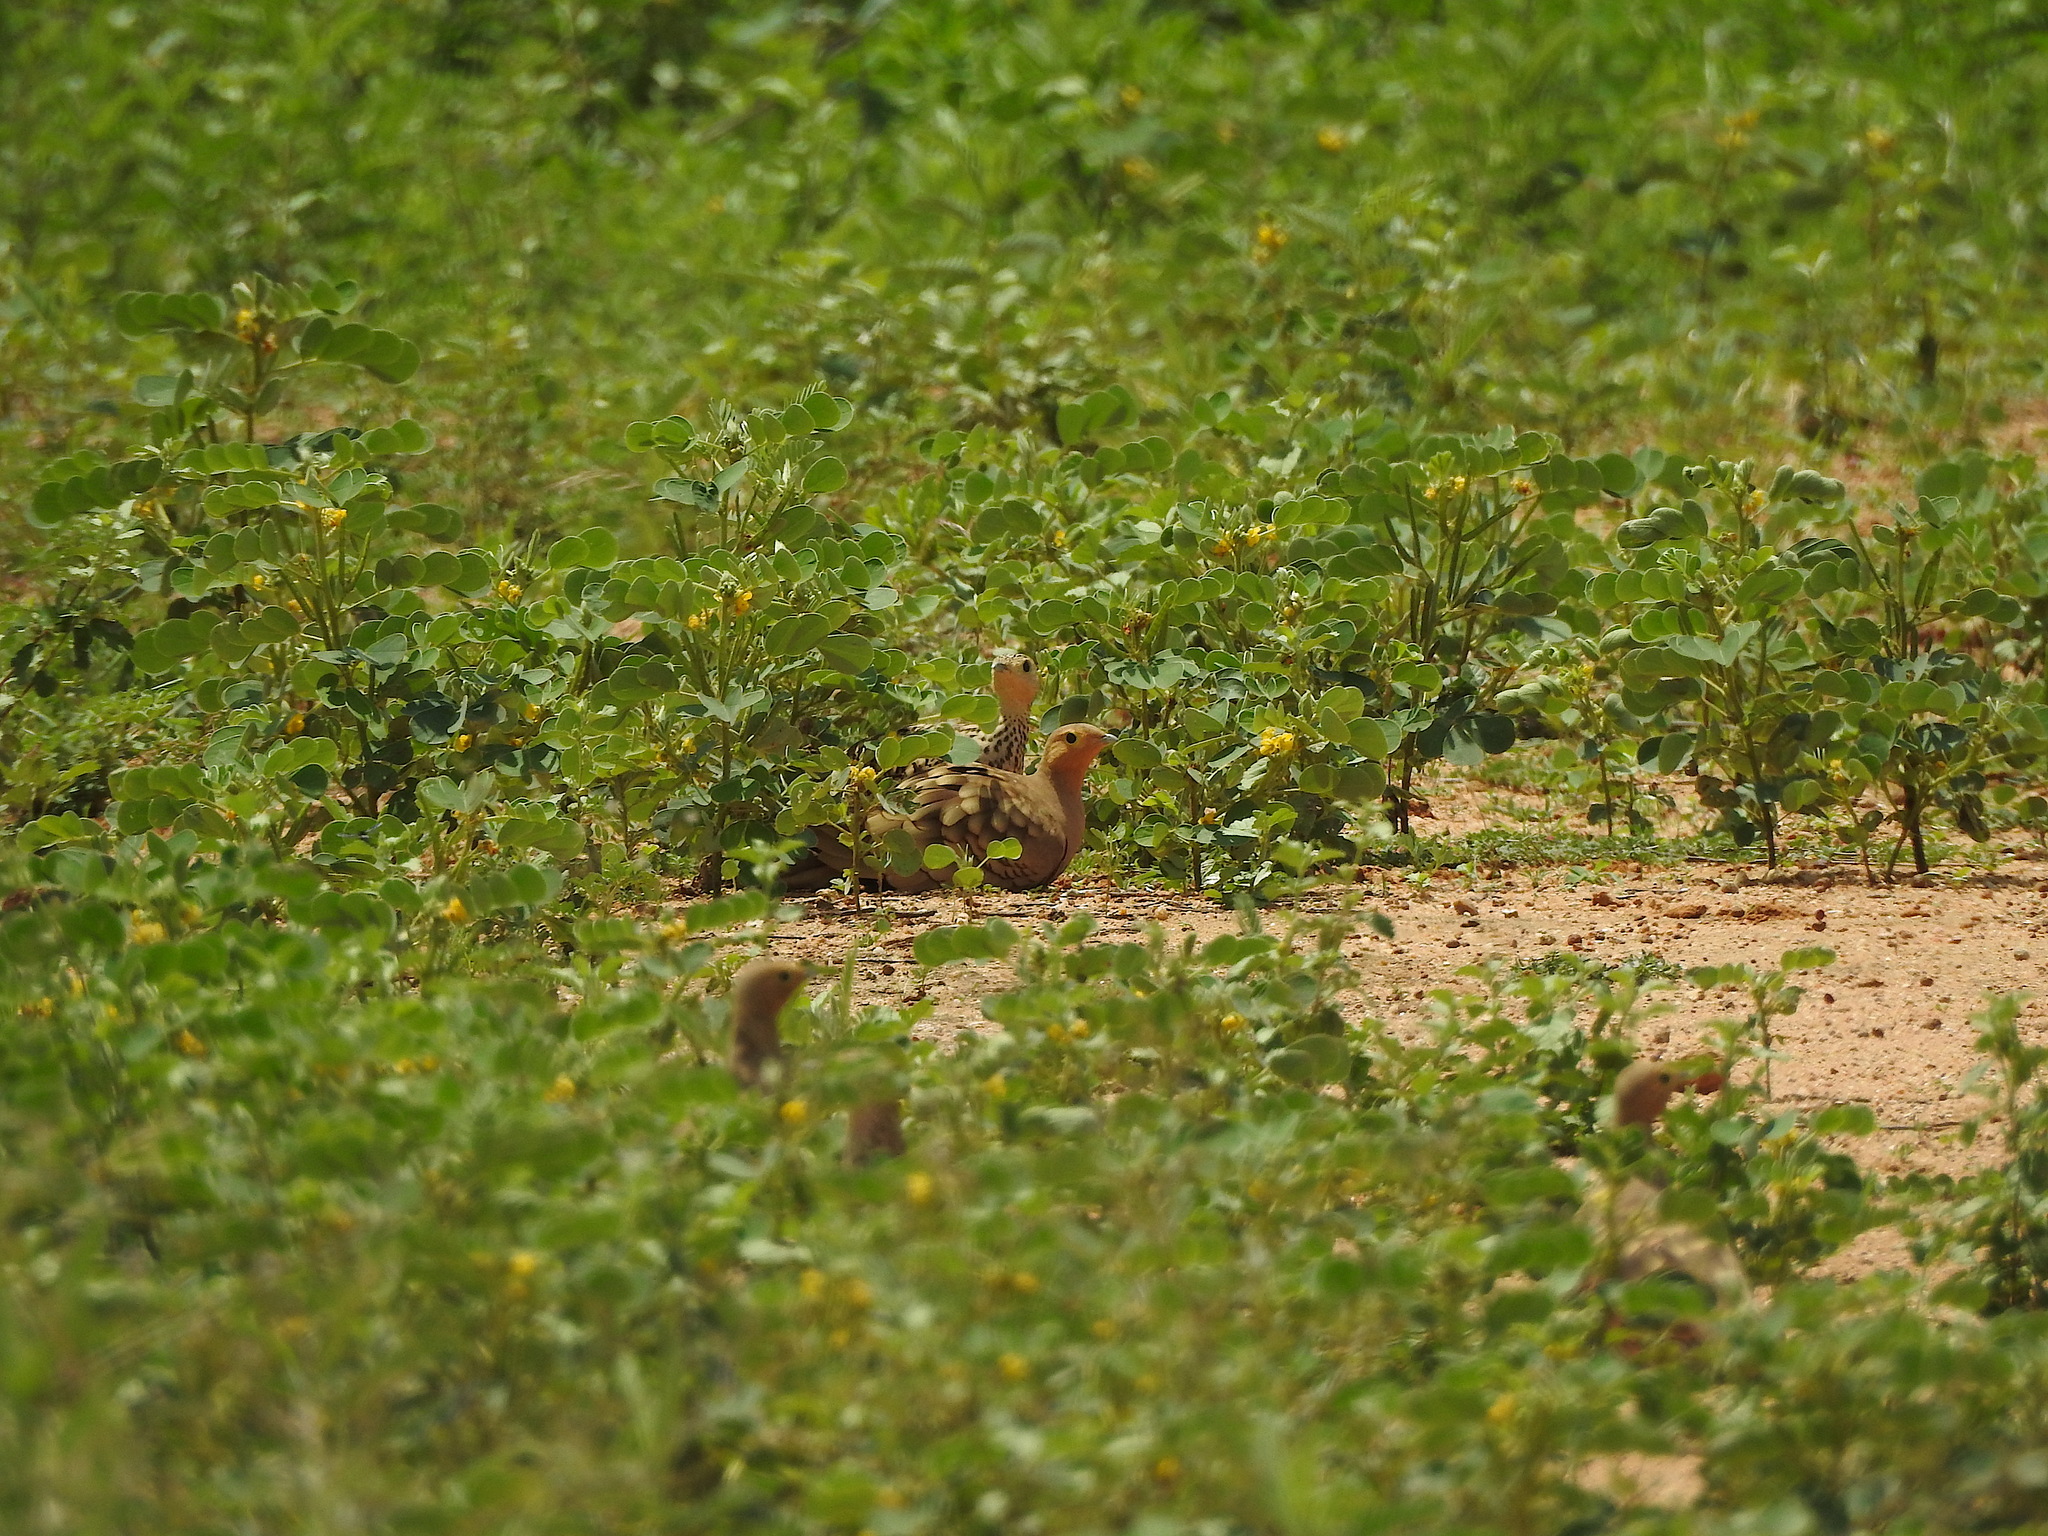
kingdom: Animalia
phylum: Chordata
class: Aves
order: Pteroclidiformes
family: Pteroclididae
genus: Pterocles
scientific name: Pterocles exustus
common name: Chestnut-bellied sandgrouse
